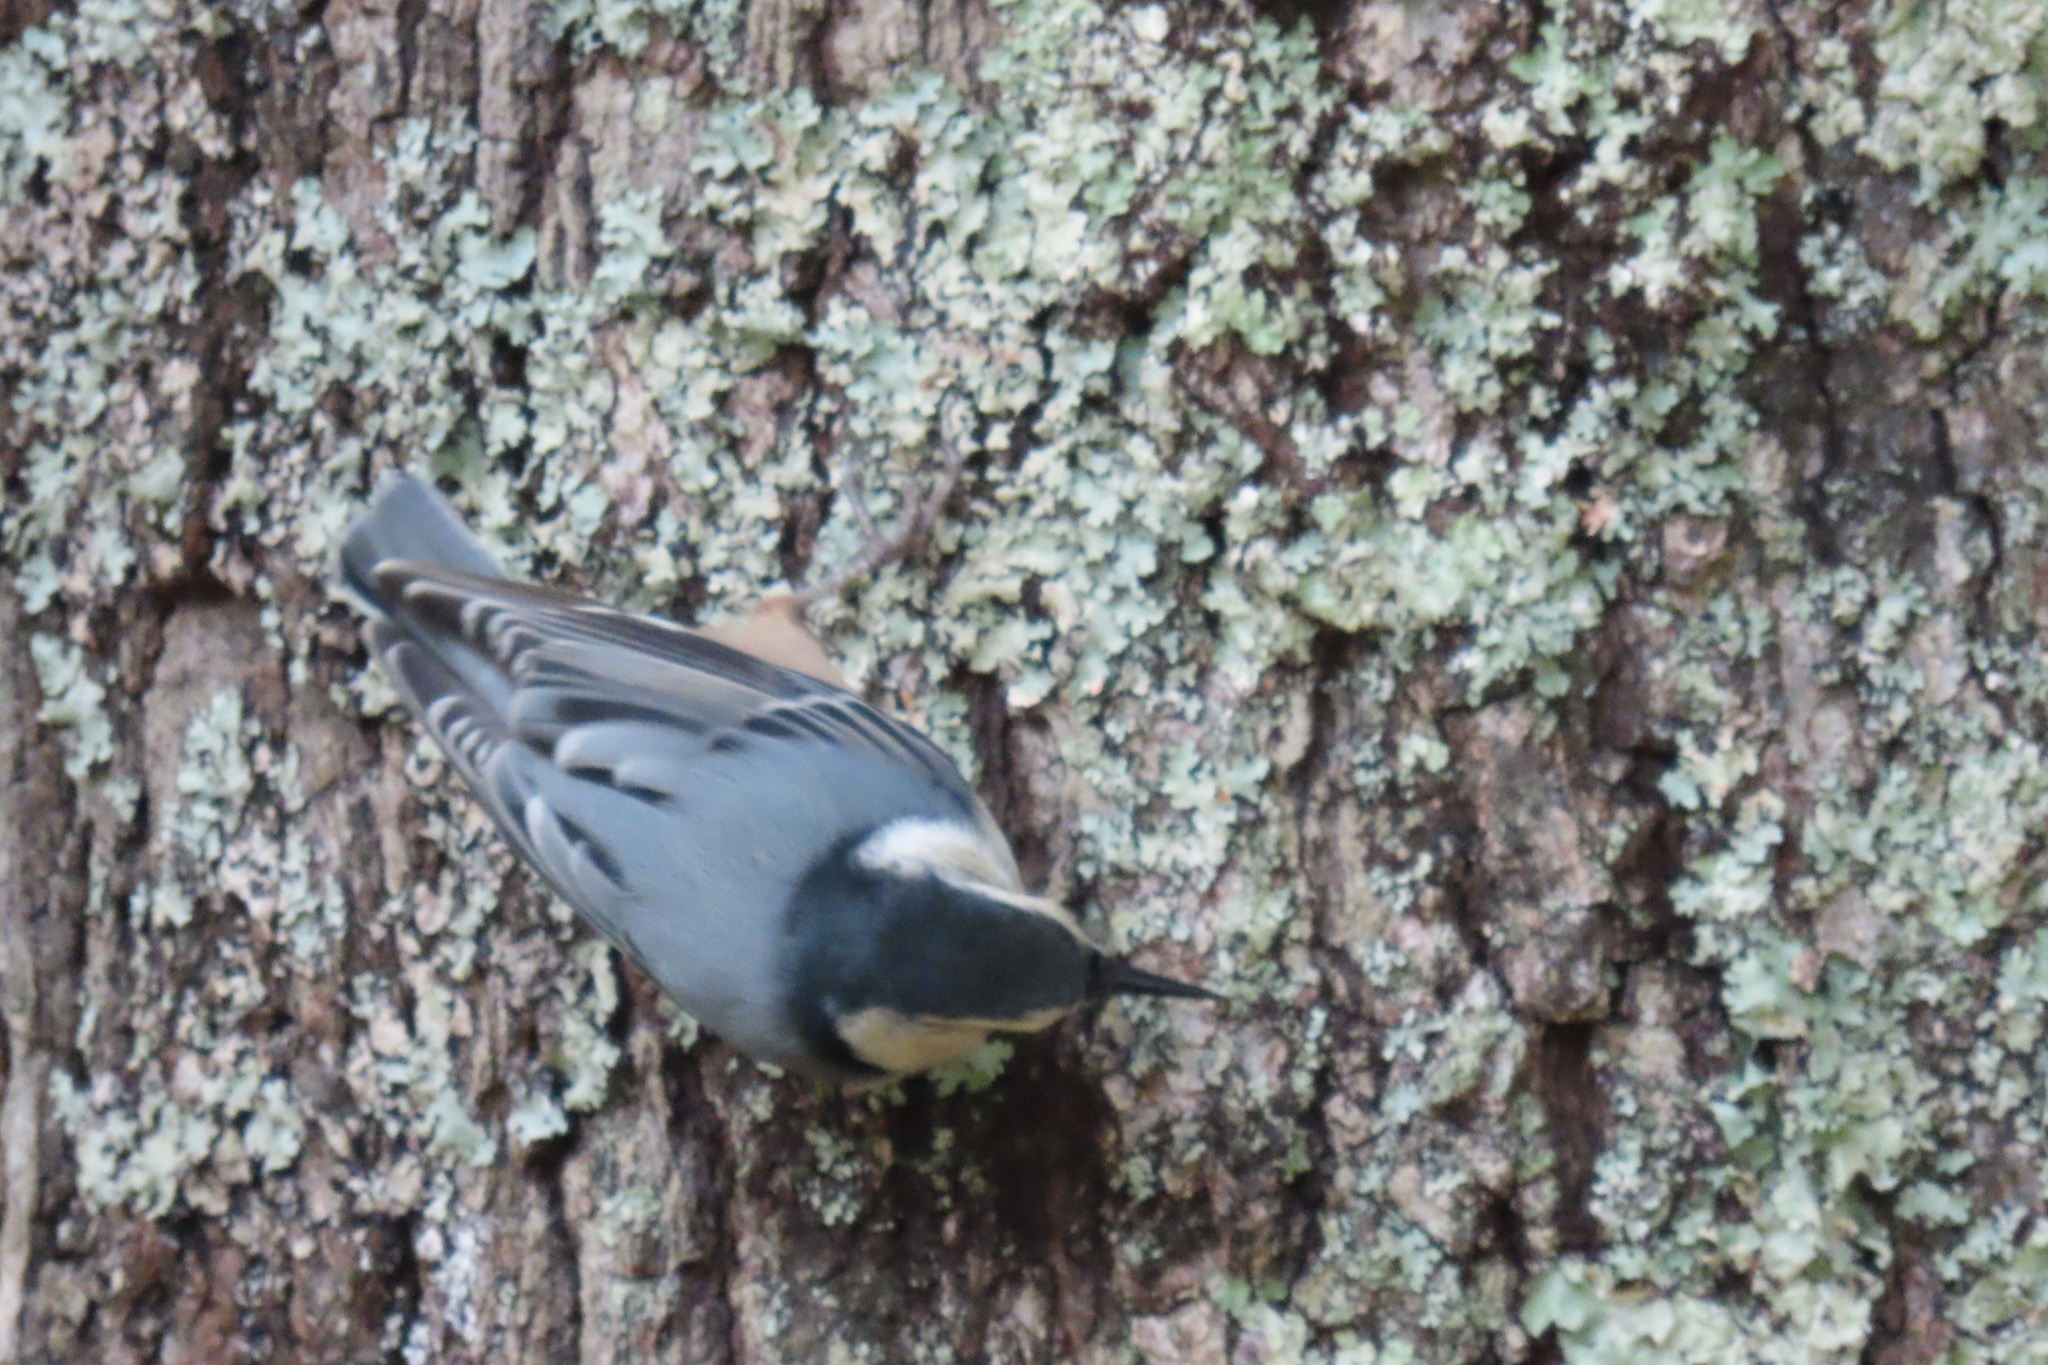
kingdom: Animalia
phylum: Chordata
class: Aves
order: Passeriformes
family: Sittidae
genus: Sitta
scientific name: Sitta carolinensis
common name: White-breasted nuthatch
